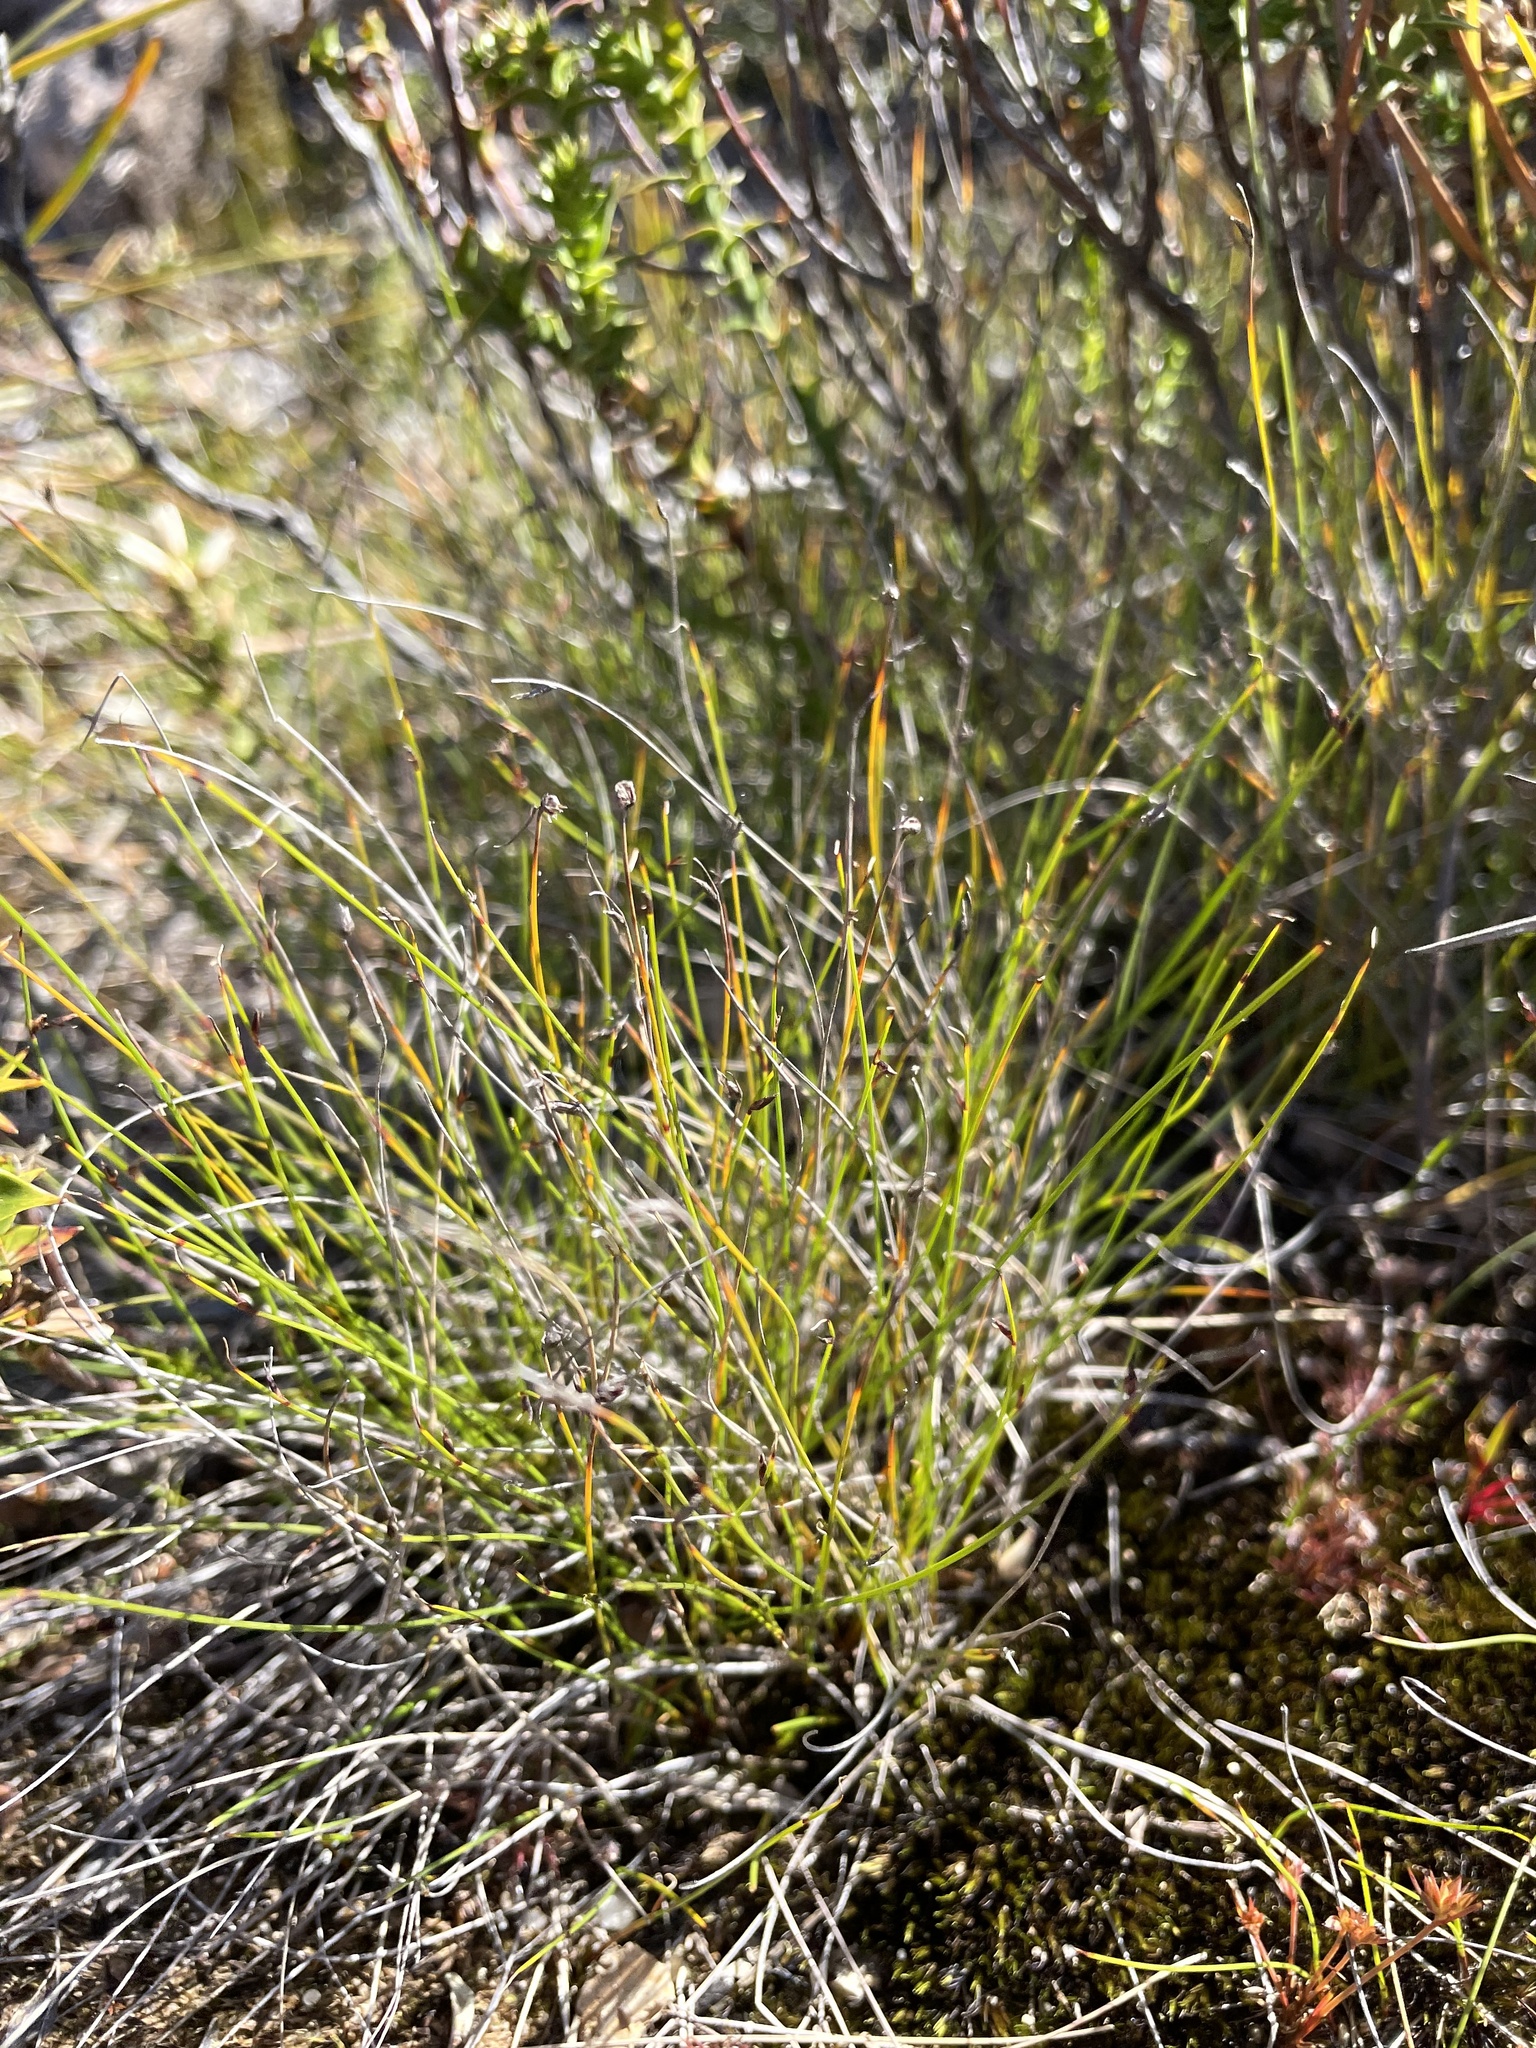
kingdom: Plantae
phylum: Tracheophyta
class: Liliopsida
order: Poales
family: Cyperaceae
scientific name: Cyperaceae
